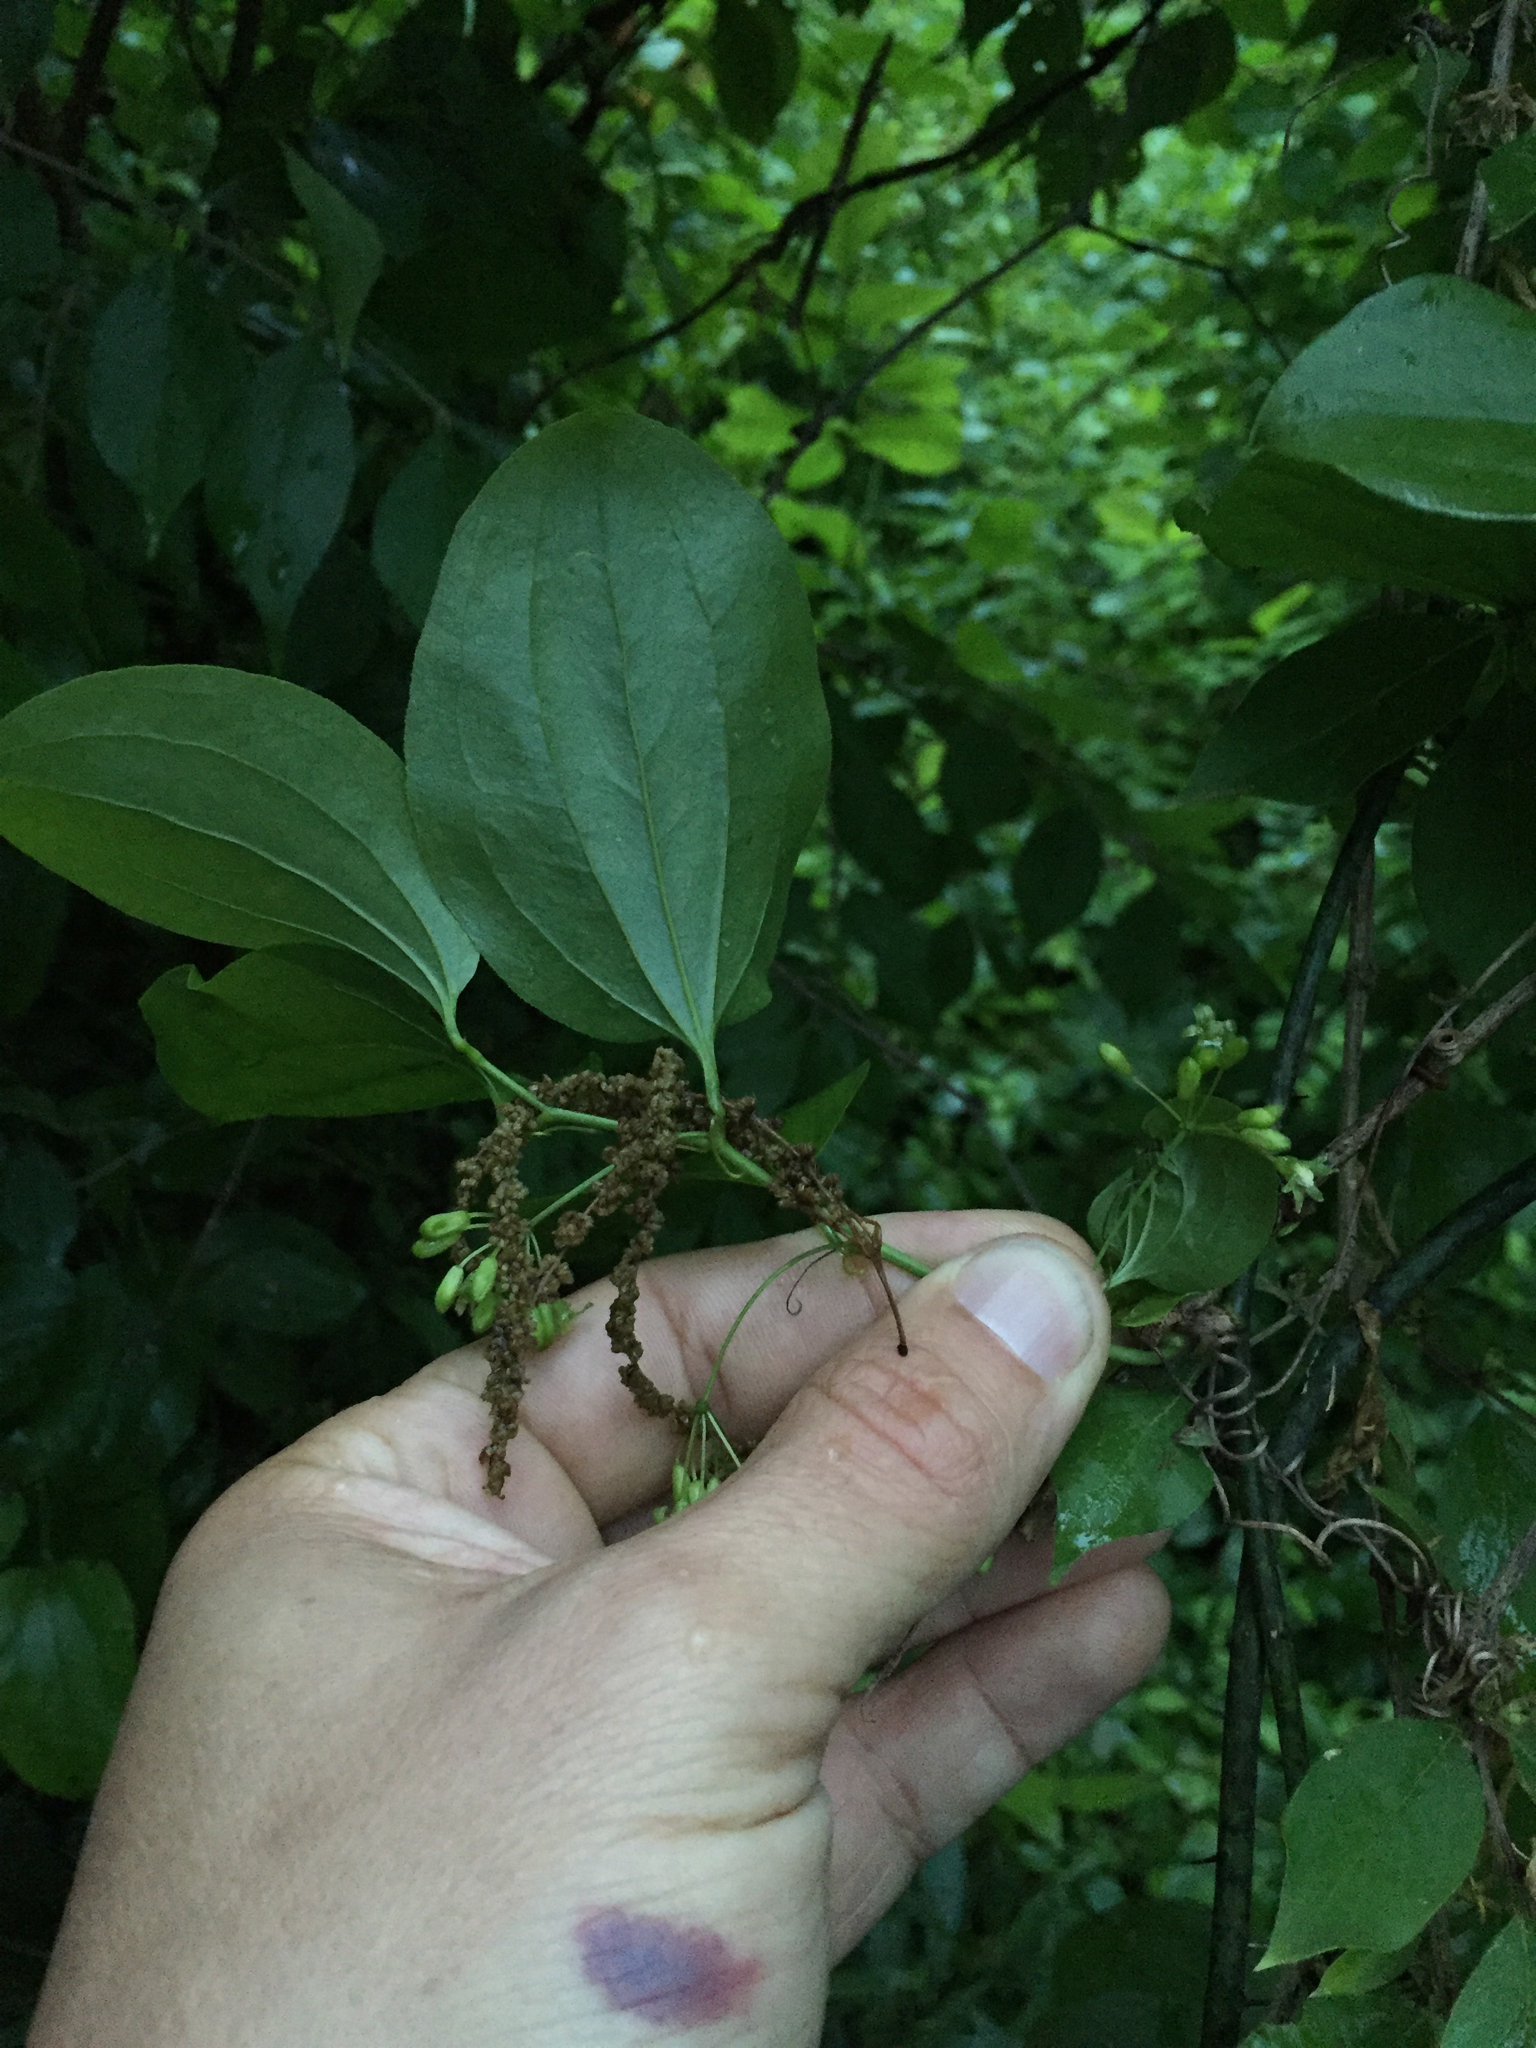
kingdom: Plantae
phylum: Tracheophyta
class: Liliopsida
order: Liliales
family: Smilacaceae
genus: Smilax
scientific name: Smilax rotundifolia
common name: Bullbriar
